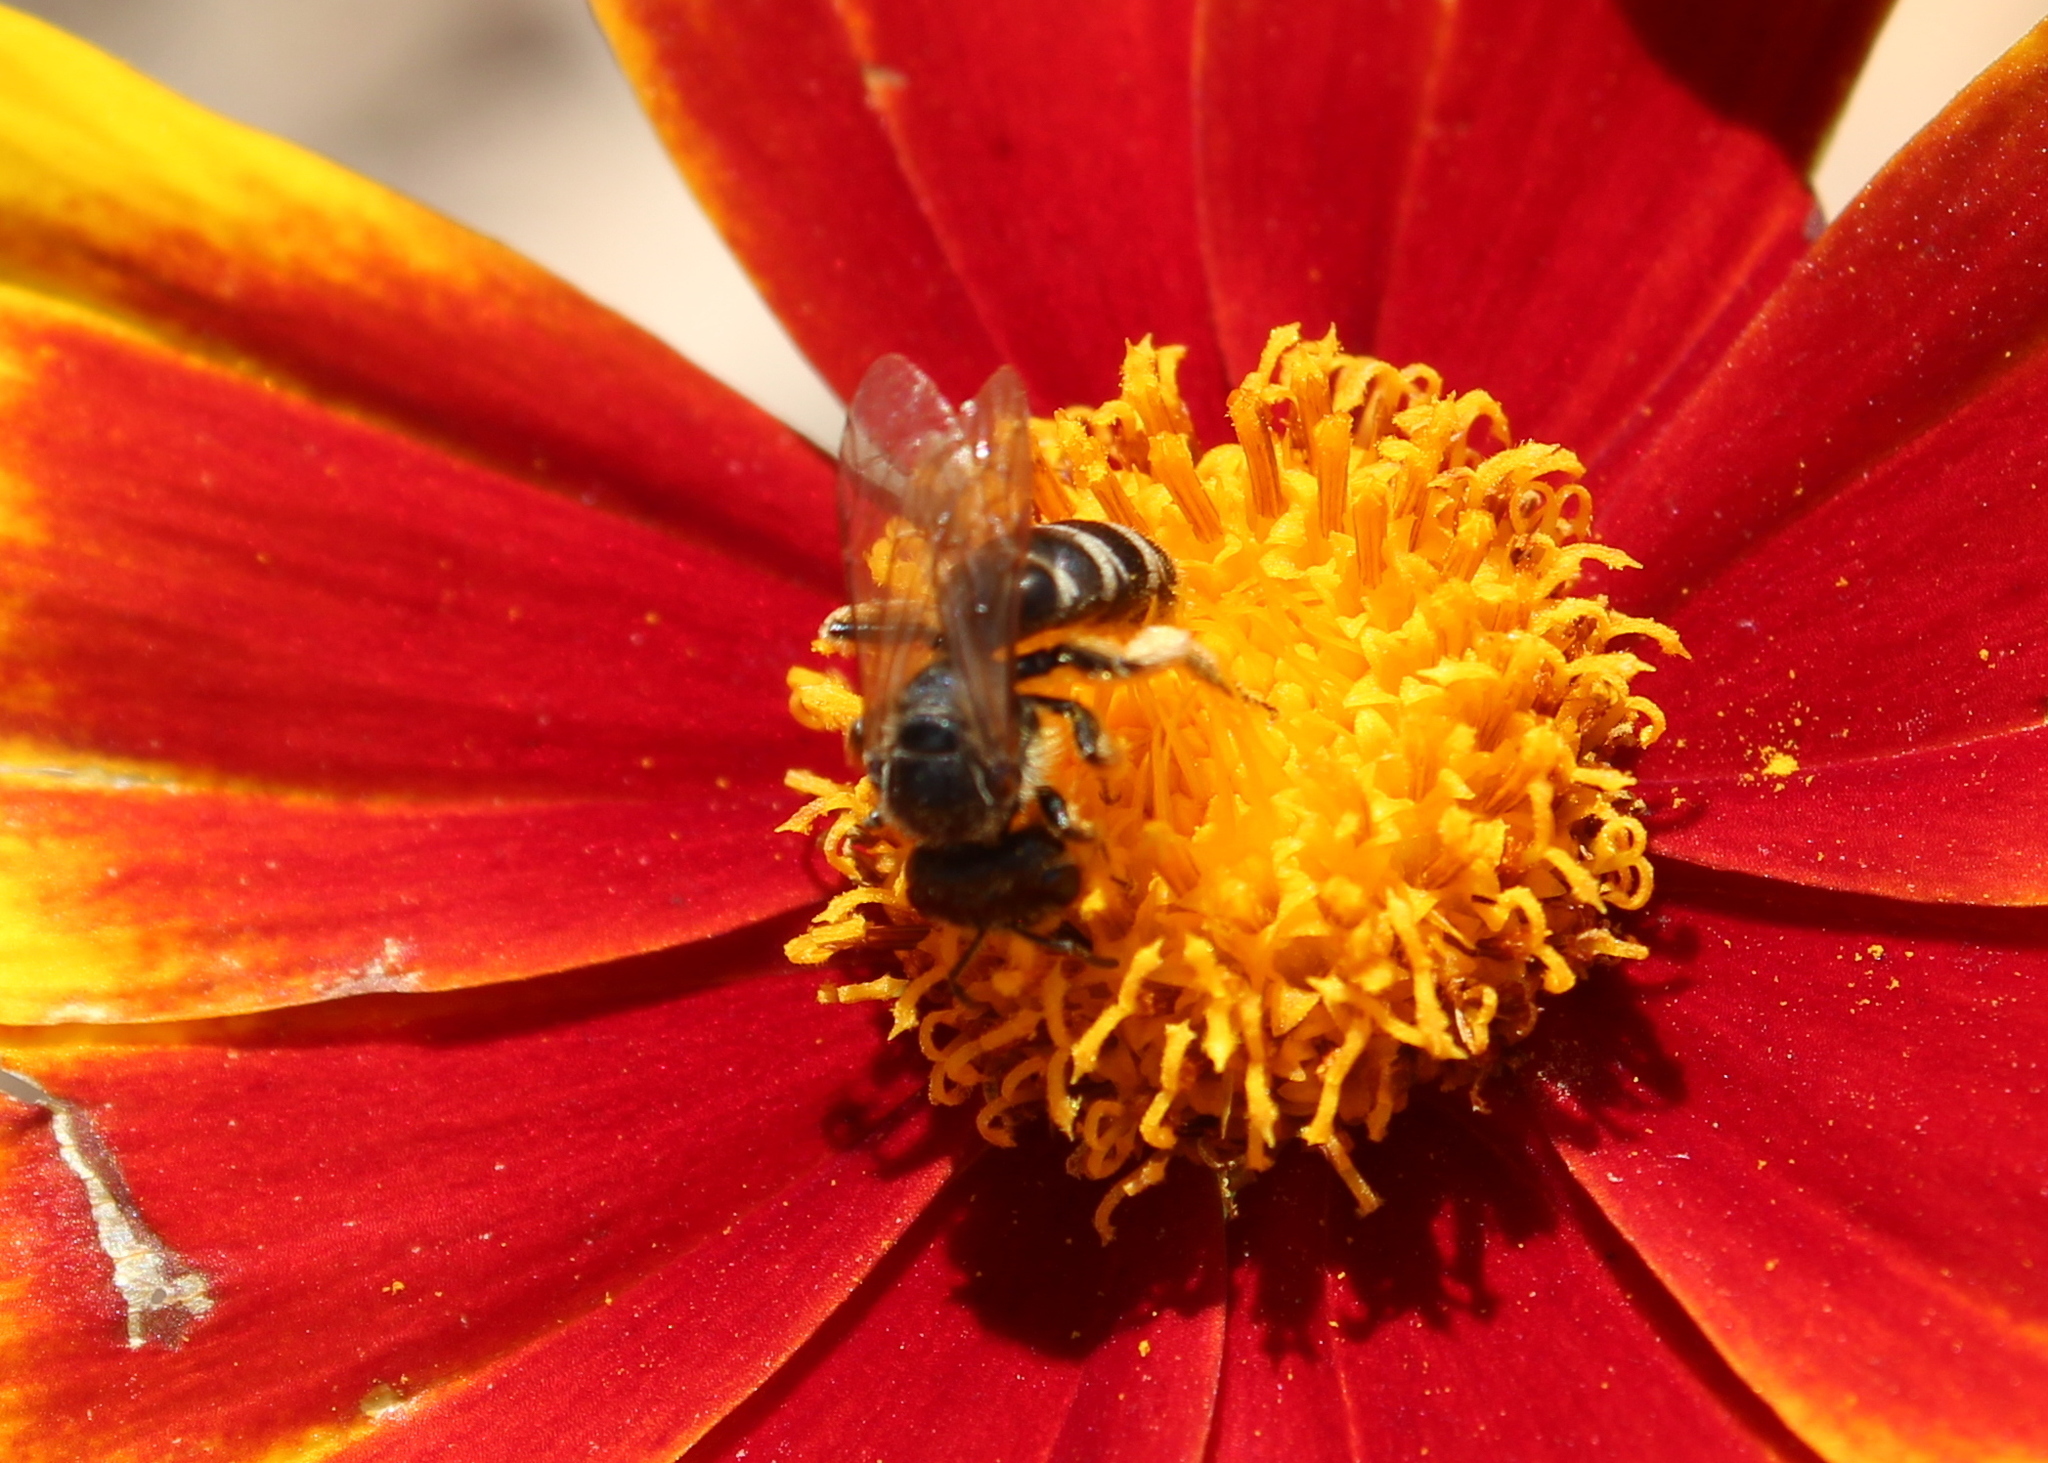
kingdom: Animalia
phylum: Arthropoda
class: Insecta
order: Hymenoptera
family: Halictidae
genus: Halictus
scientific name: Halictus ligatus
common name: Ligated furrow bee
